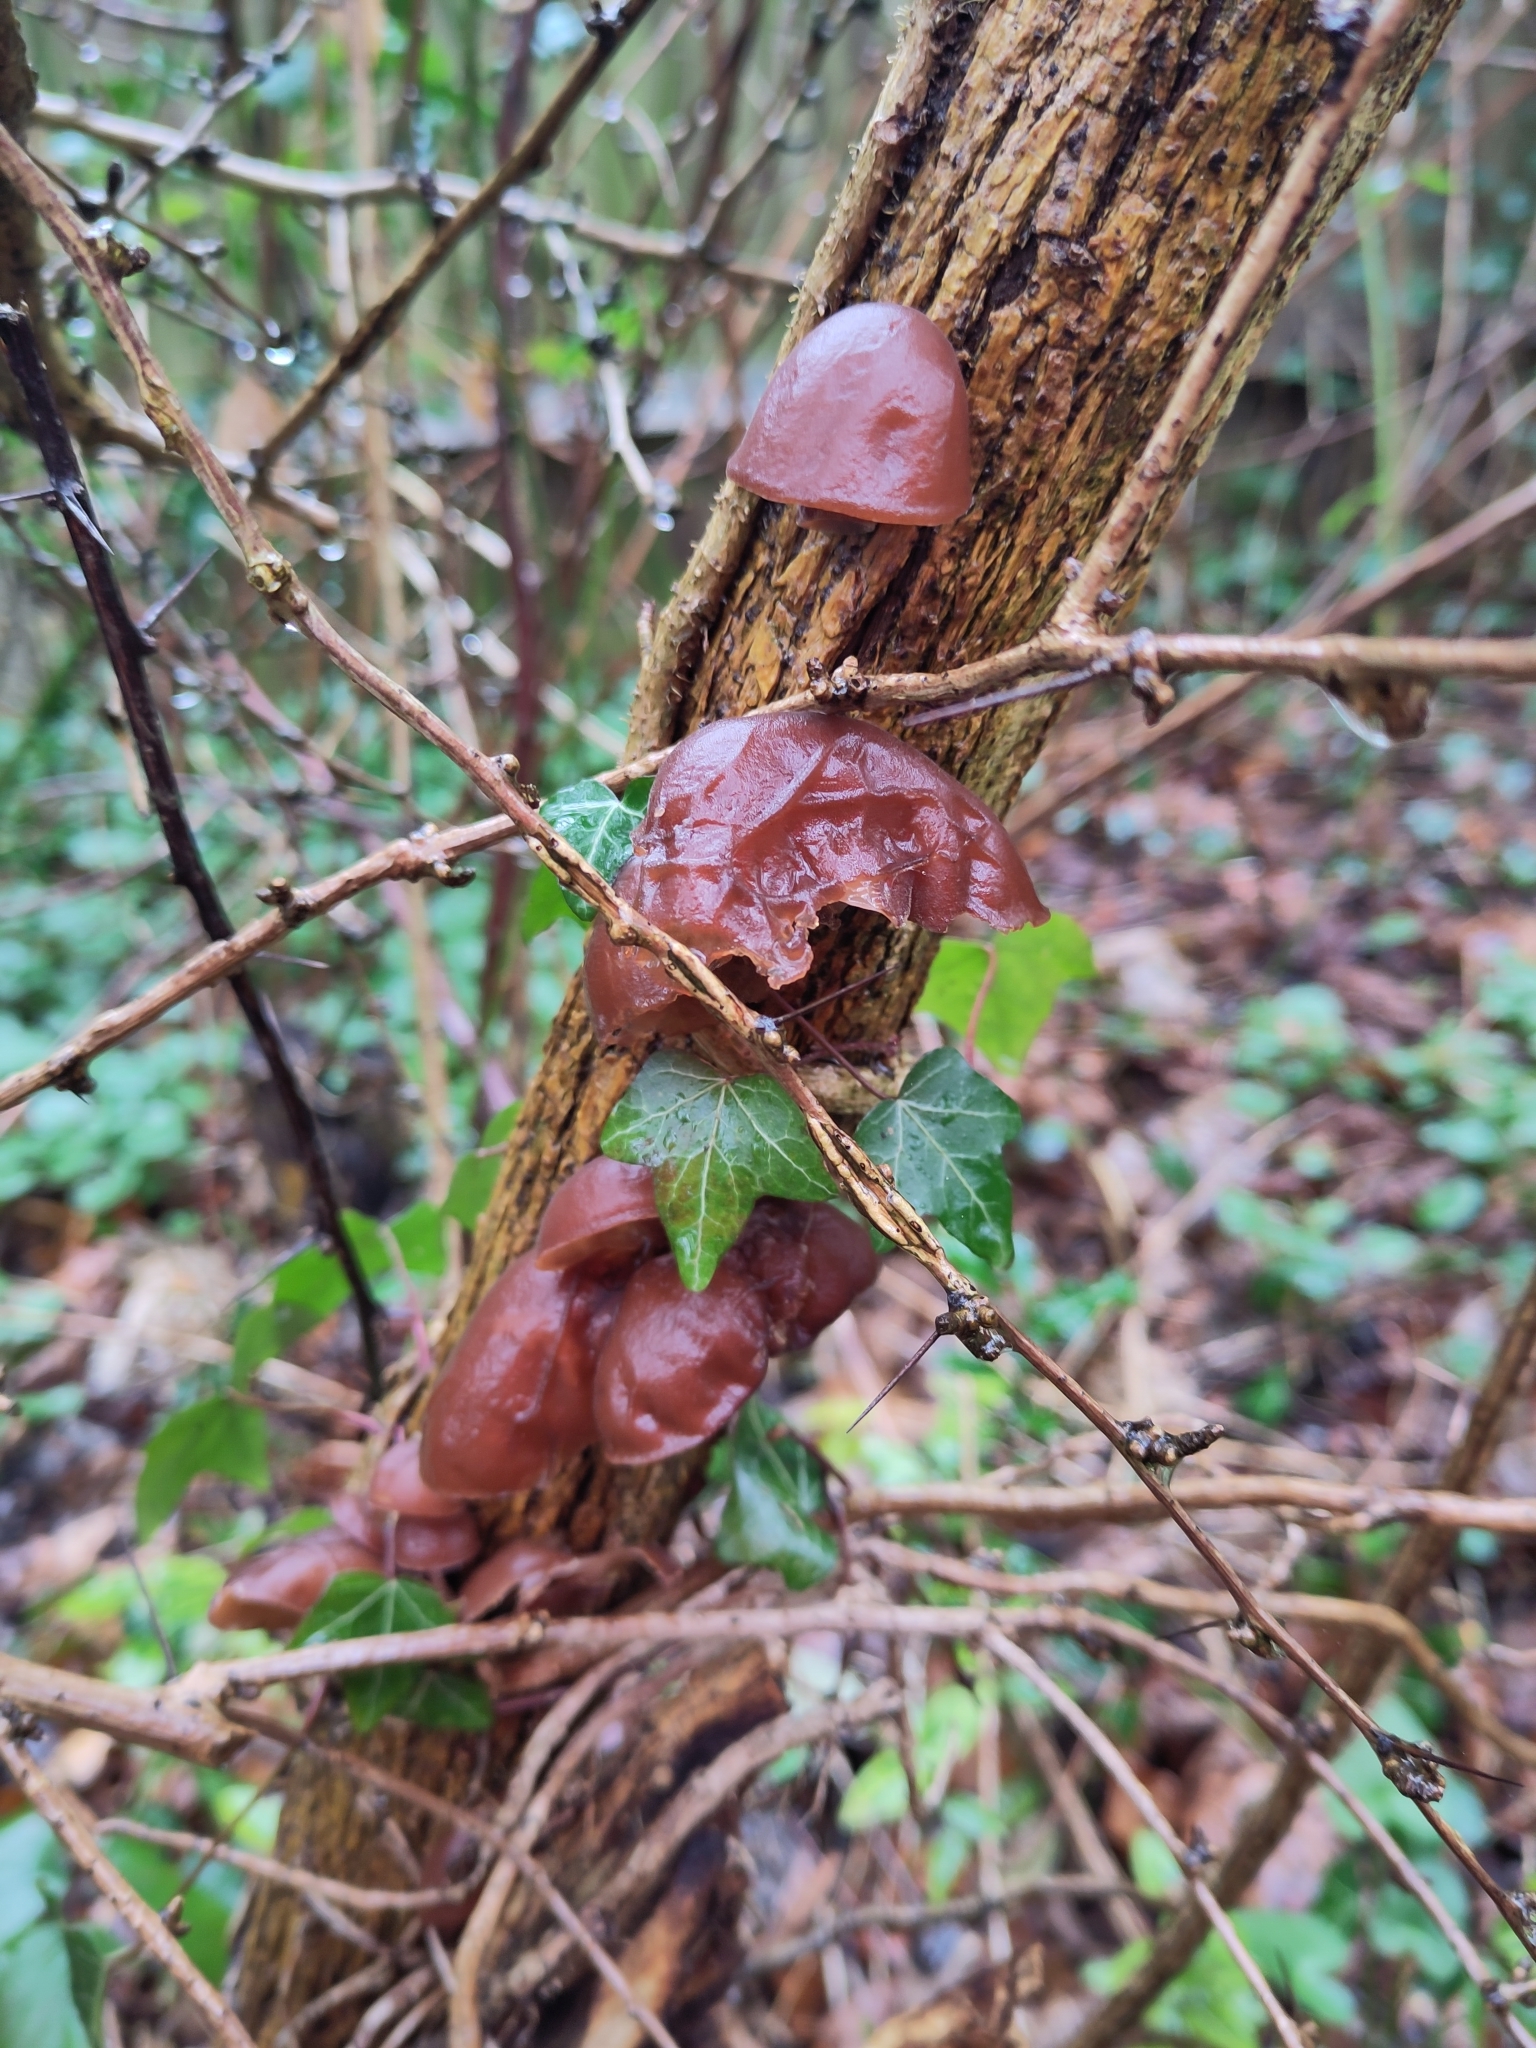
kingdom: Fungi
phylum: Basidiomycota
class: Agaricomycetes
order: Auriculariales
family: Auriculariaceae
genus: Auricularia
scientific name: Auricularia auricula-judae
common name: Jelly ear
